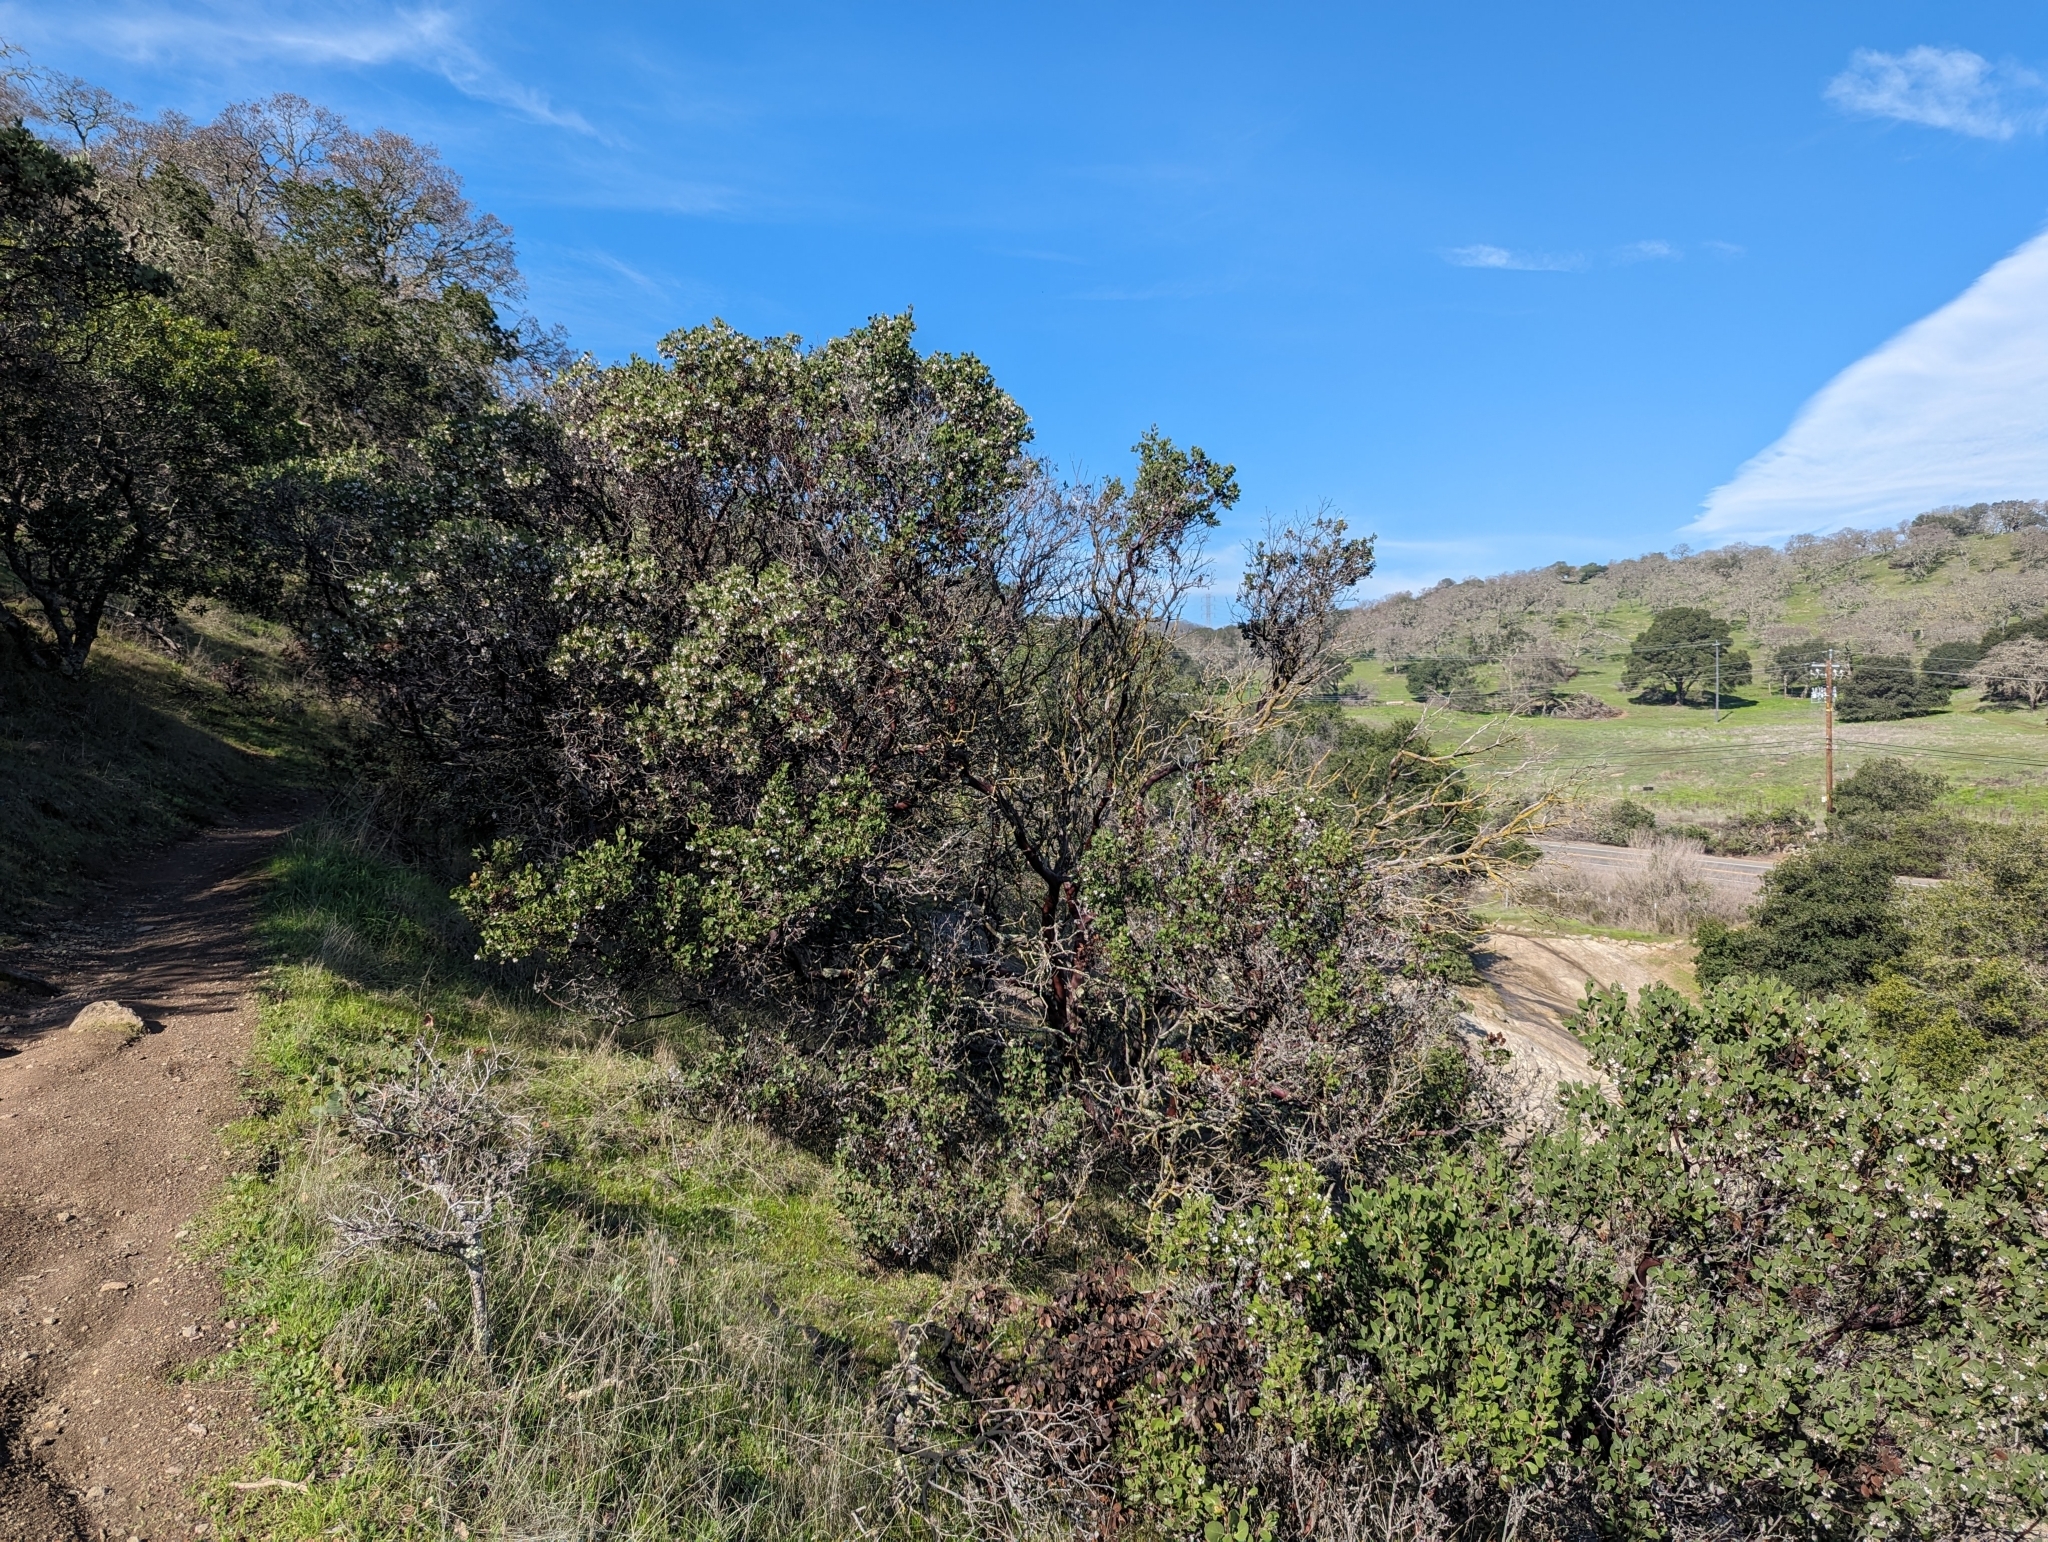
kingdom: Plantae
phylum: Tracheophyta
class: Magnoliopsida
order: Ericales
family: Ericaceae
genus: Arctostaphylos
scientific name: Arctostaphylos manzanita
